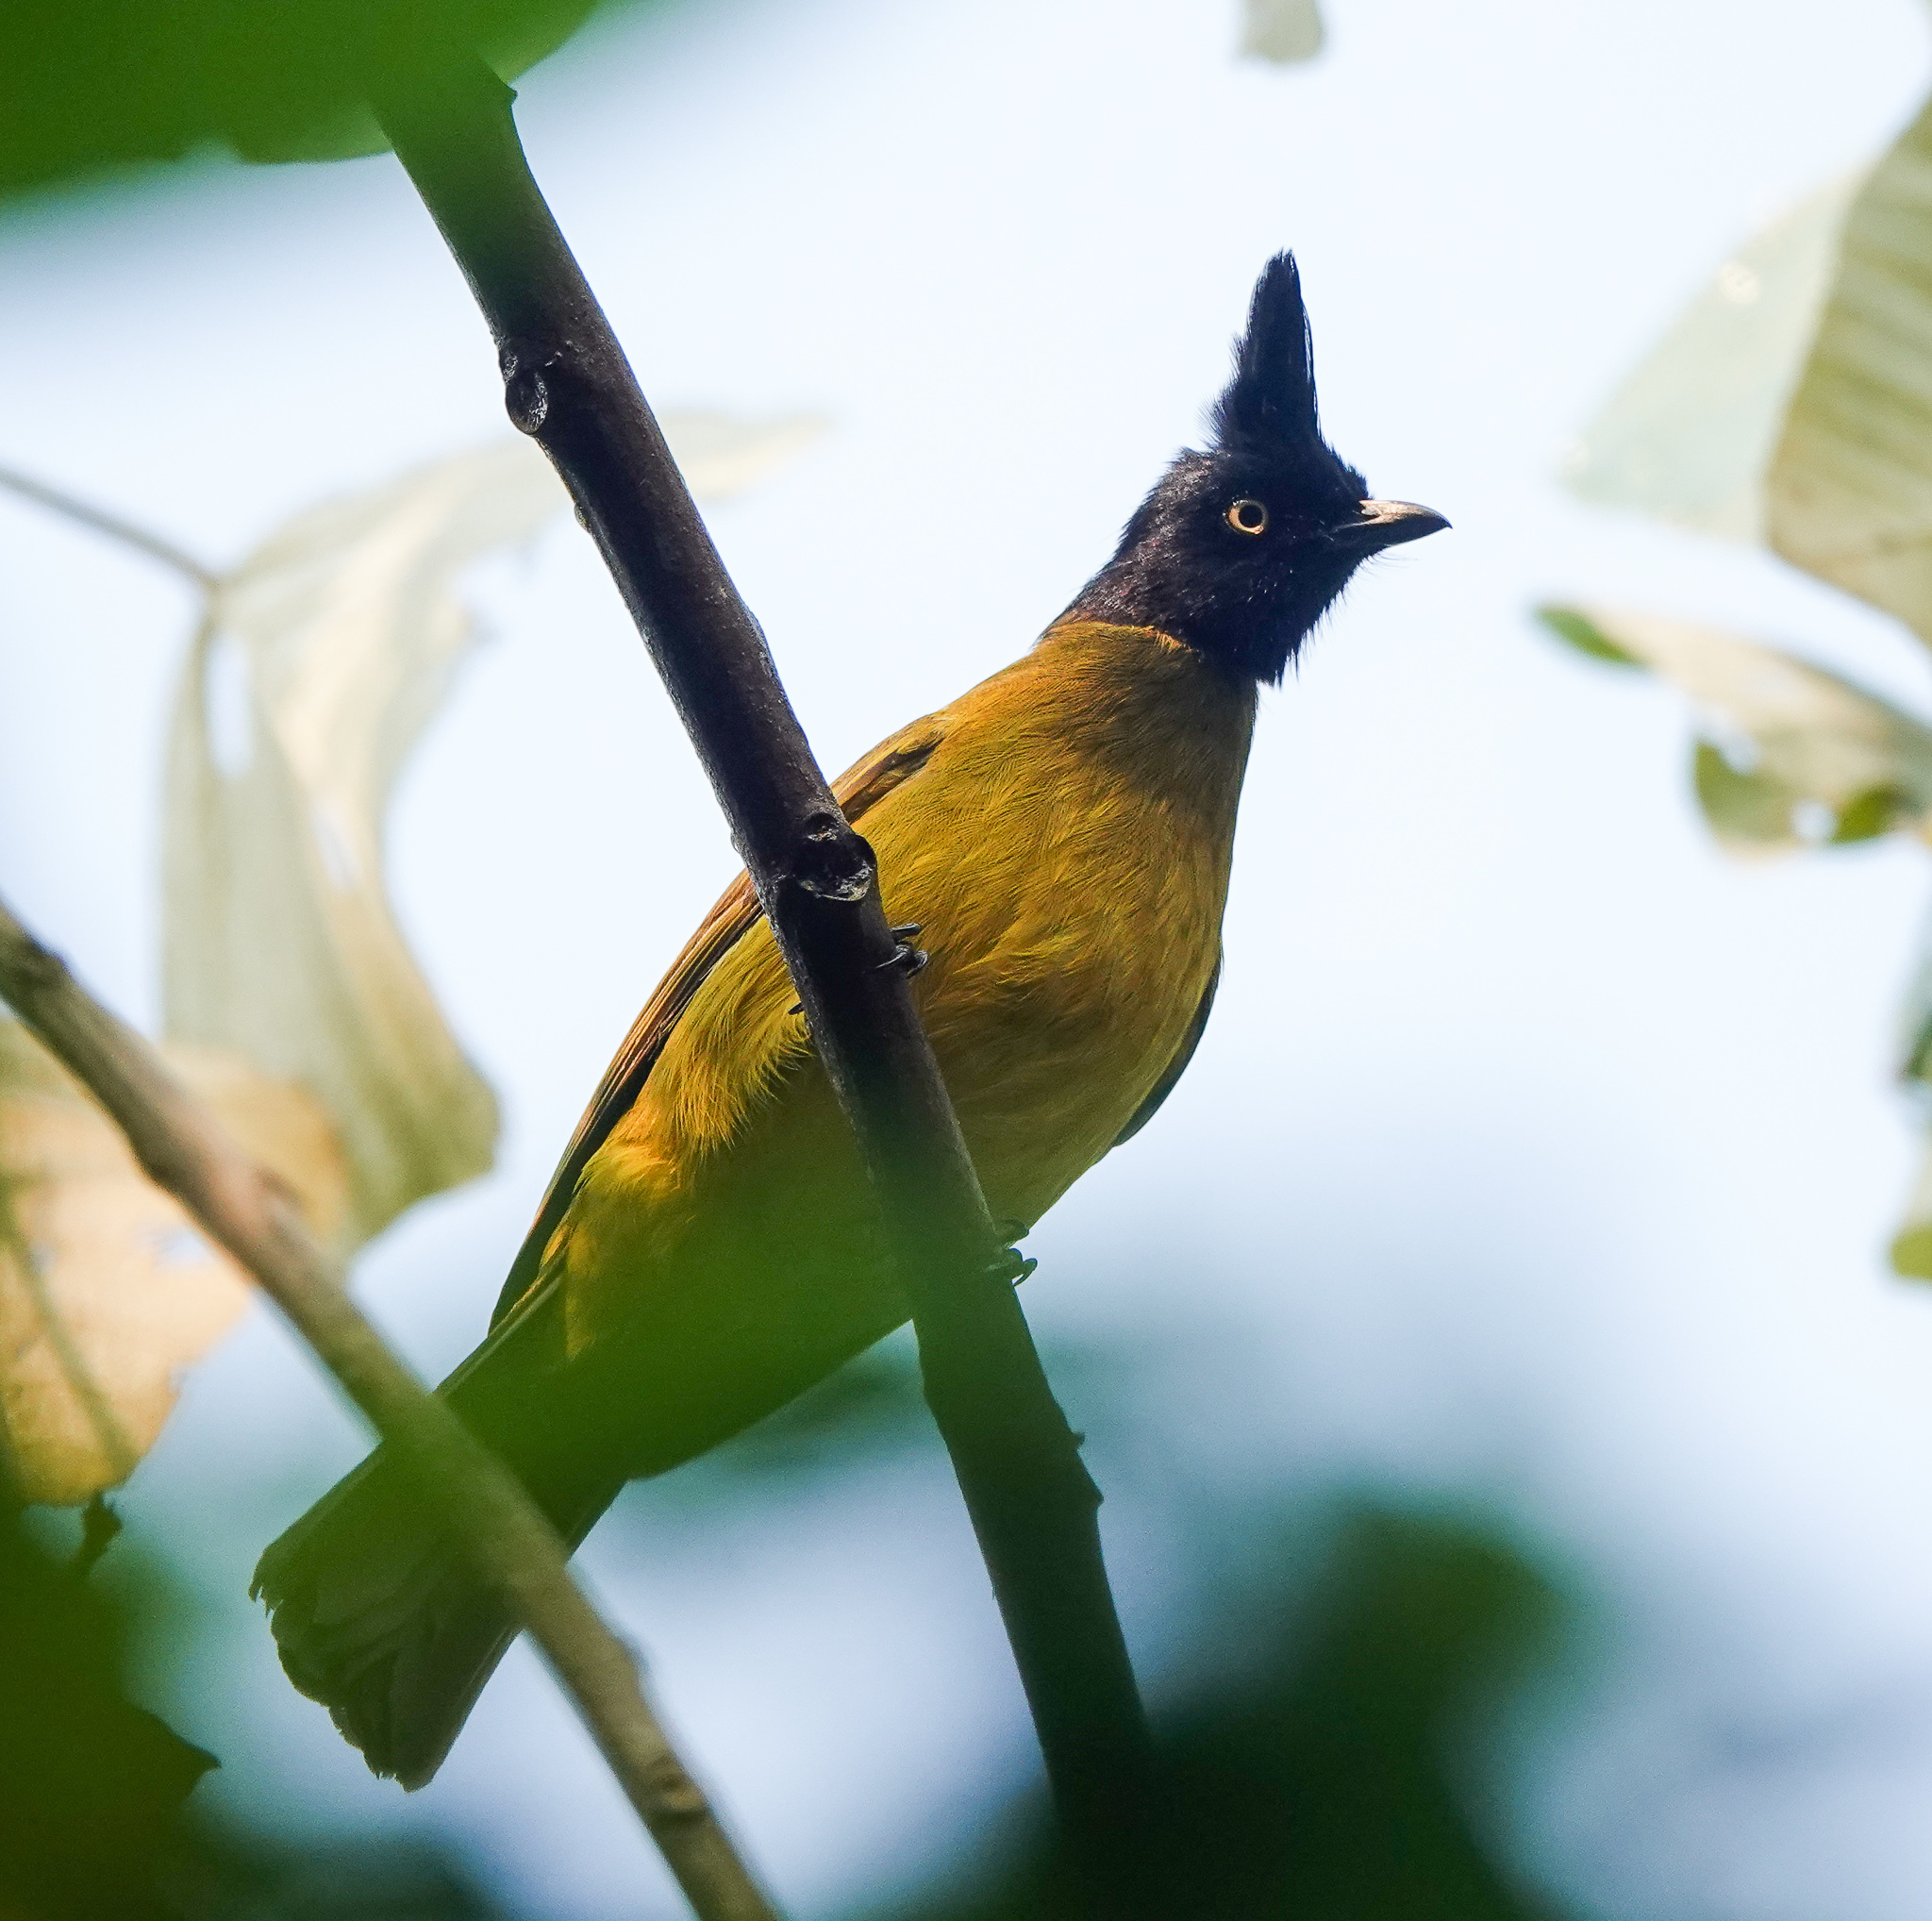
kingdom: Animalia
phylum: Chordata
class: Aves
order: Passeriformes
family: Pycnonotidae
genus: Pycnonotus
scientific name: Pycnonotus flaviventris
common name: Black-crested bulbul
